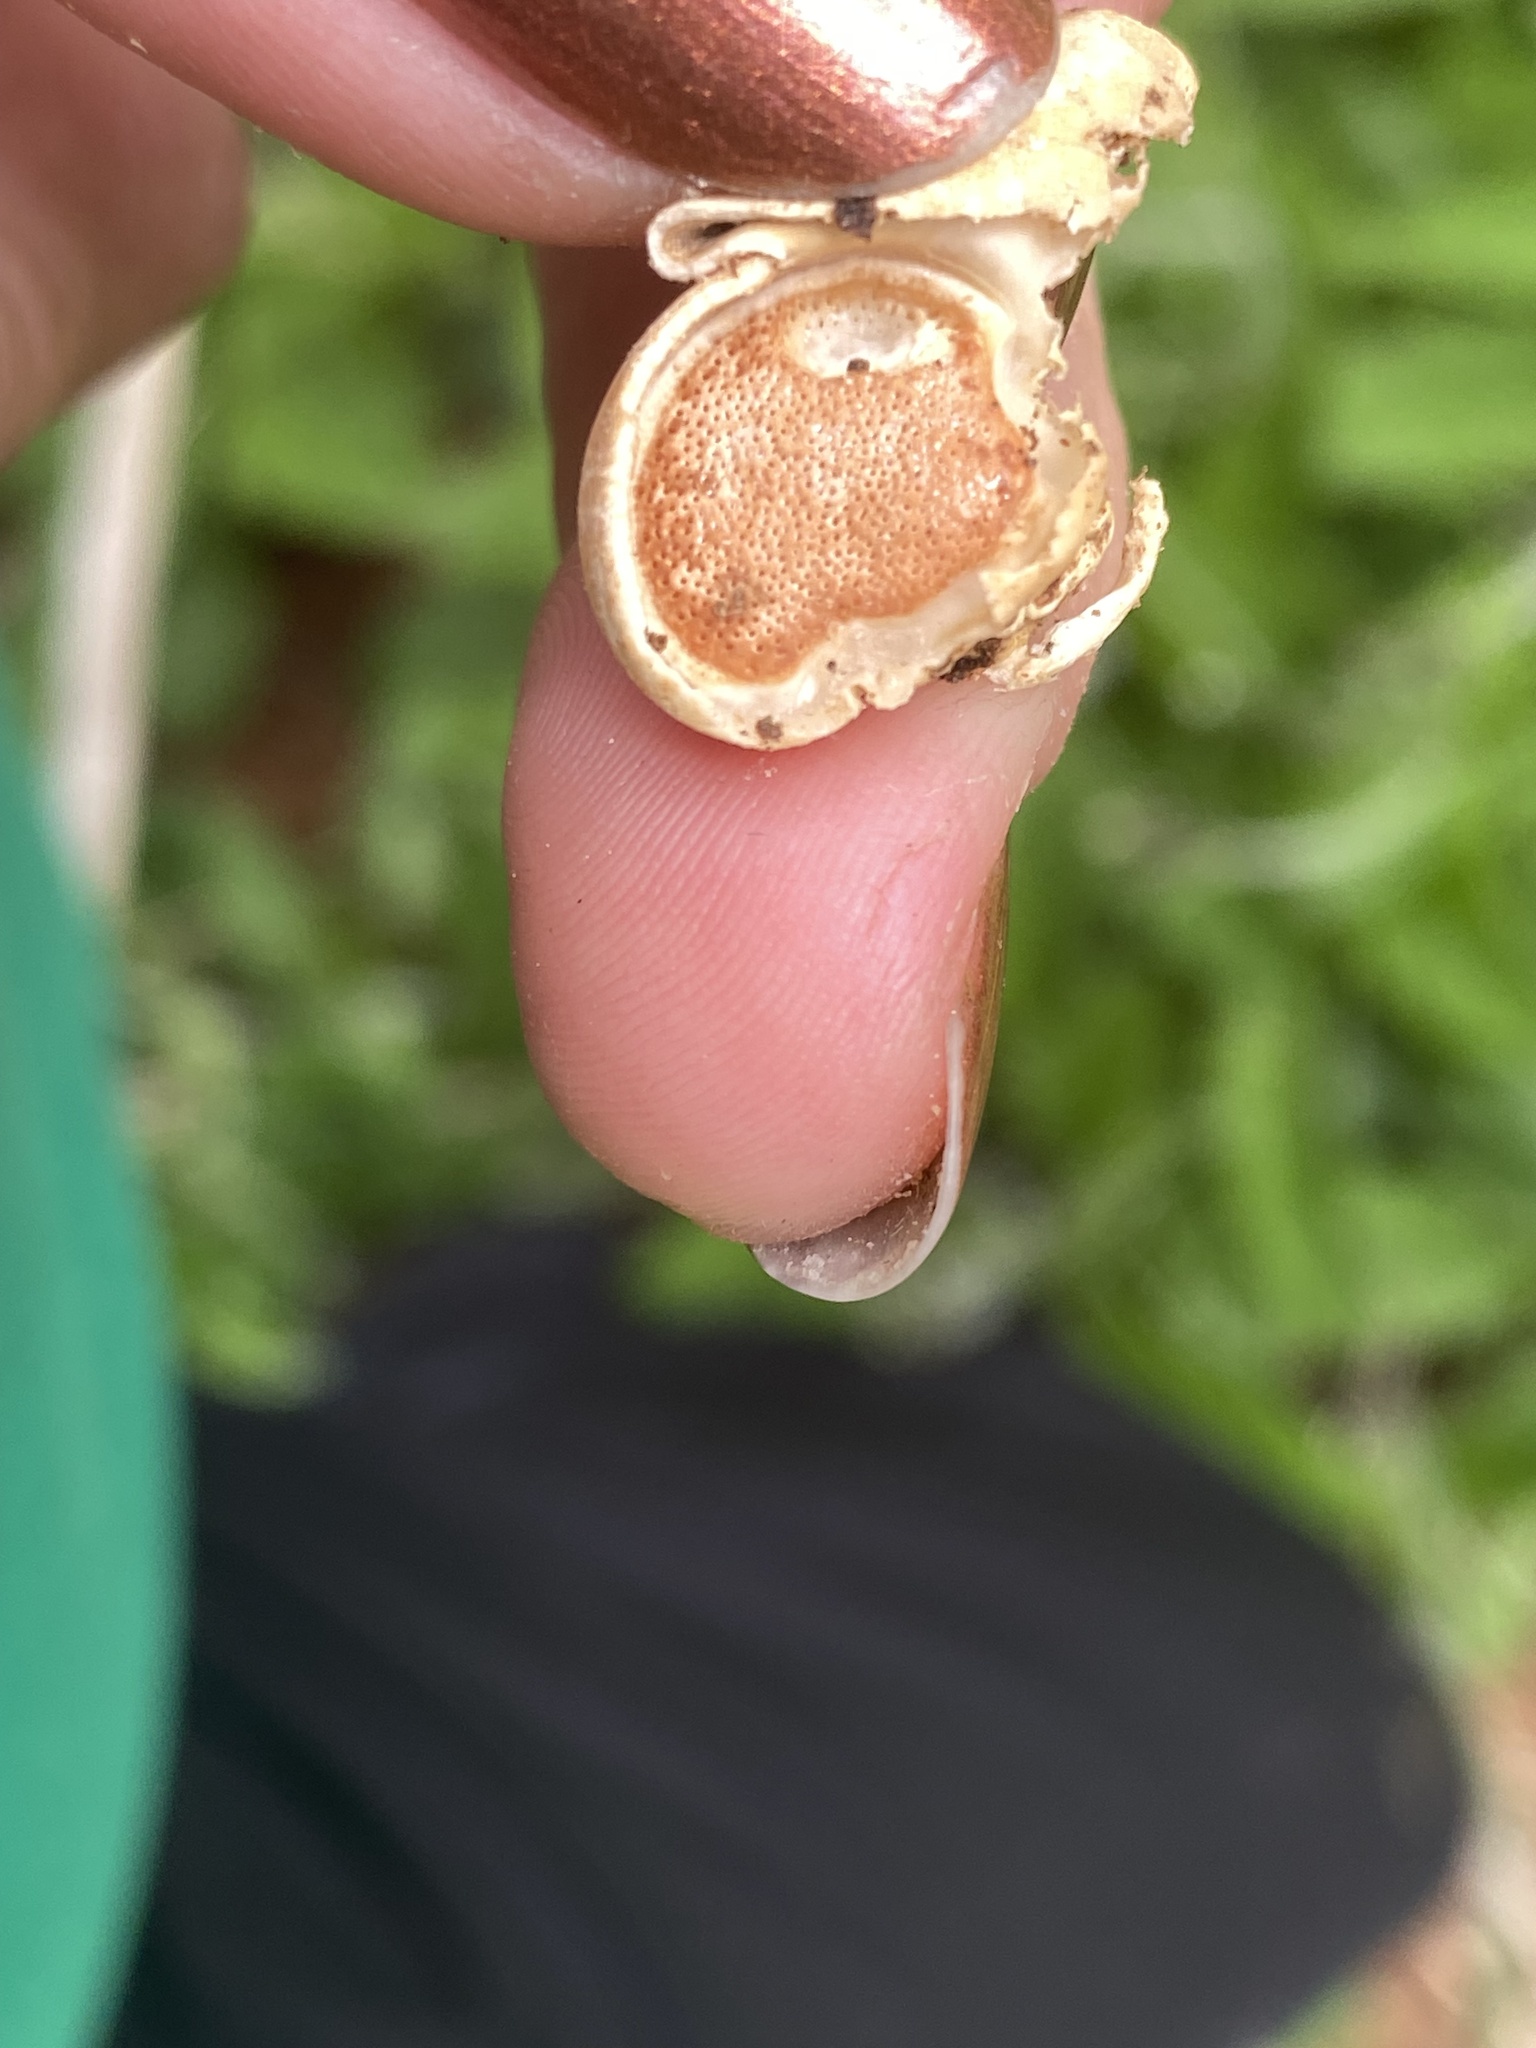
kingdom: Fungi
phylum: Basidiomycota
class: Agaricomycetes
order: Polyporales
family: Polyporaceae
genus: Cryptoporus
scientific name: Cryptoporus volvatus
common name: Veiled polypore
